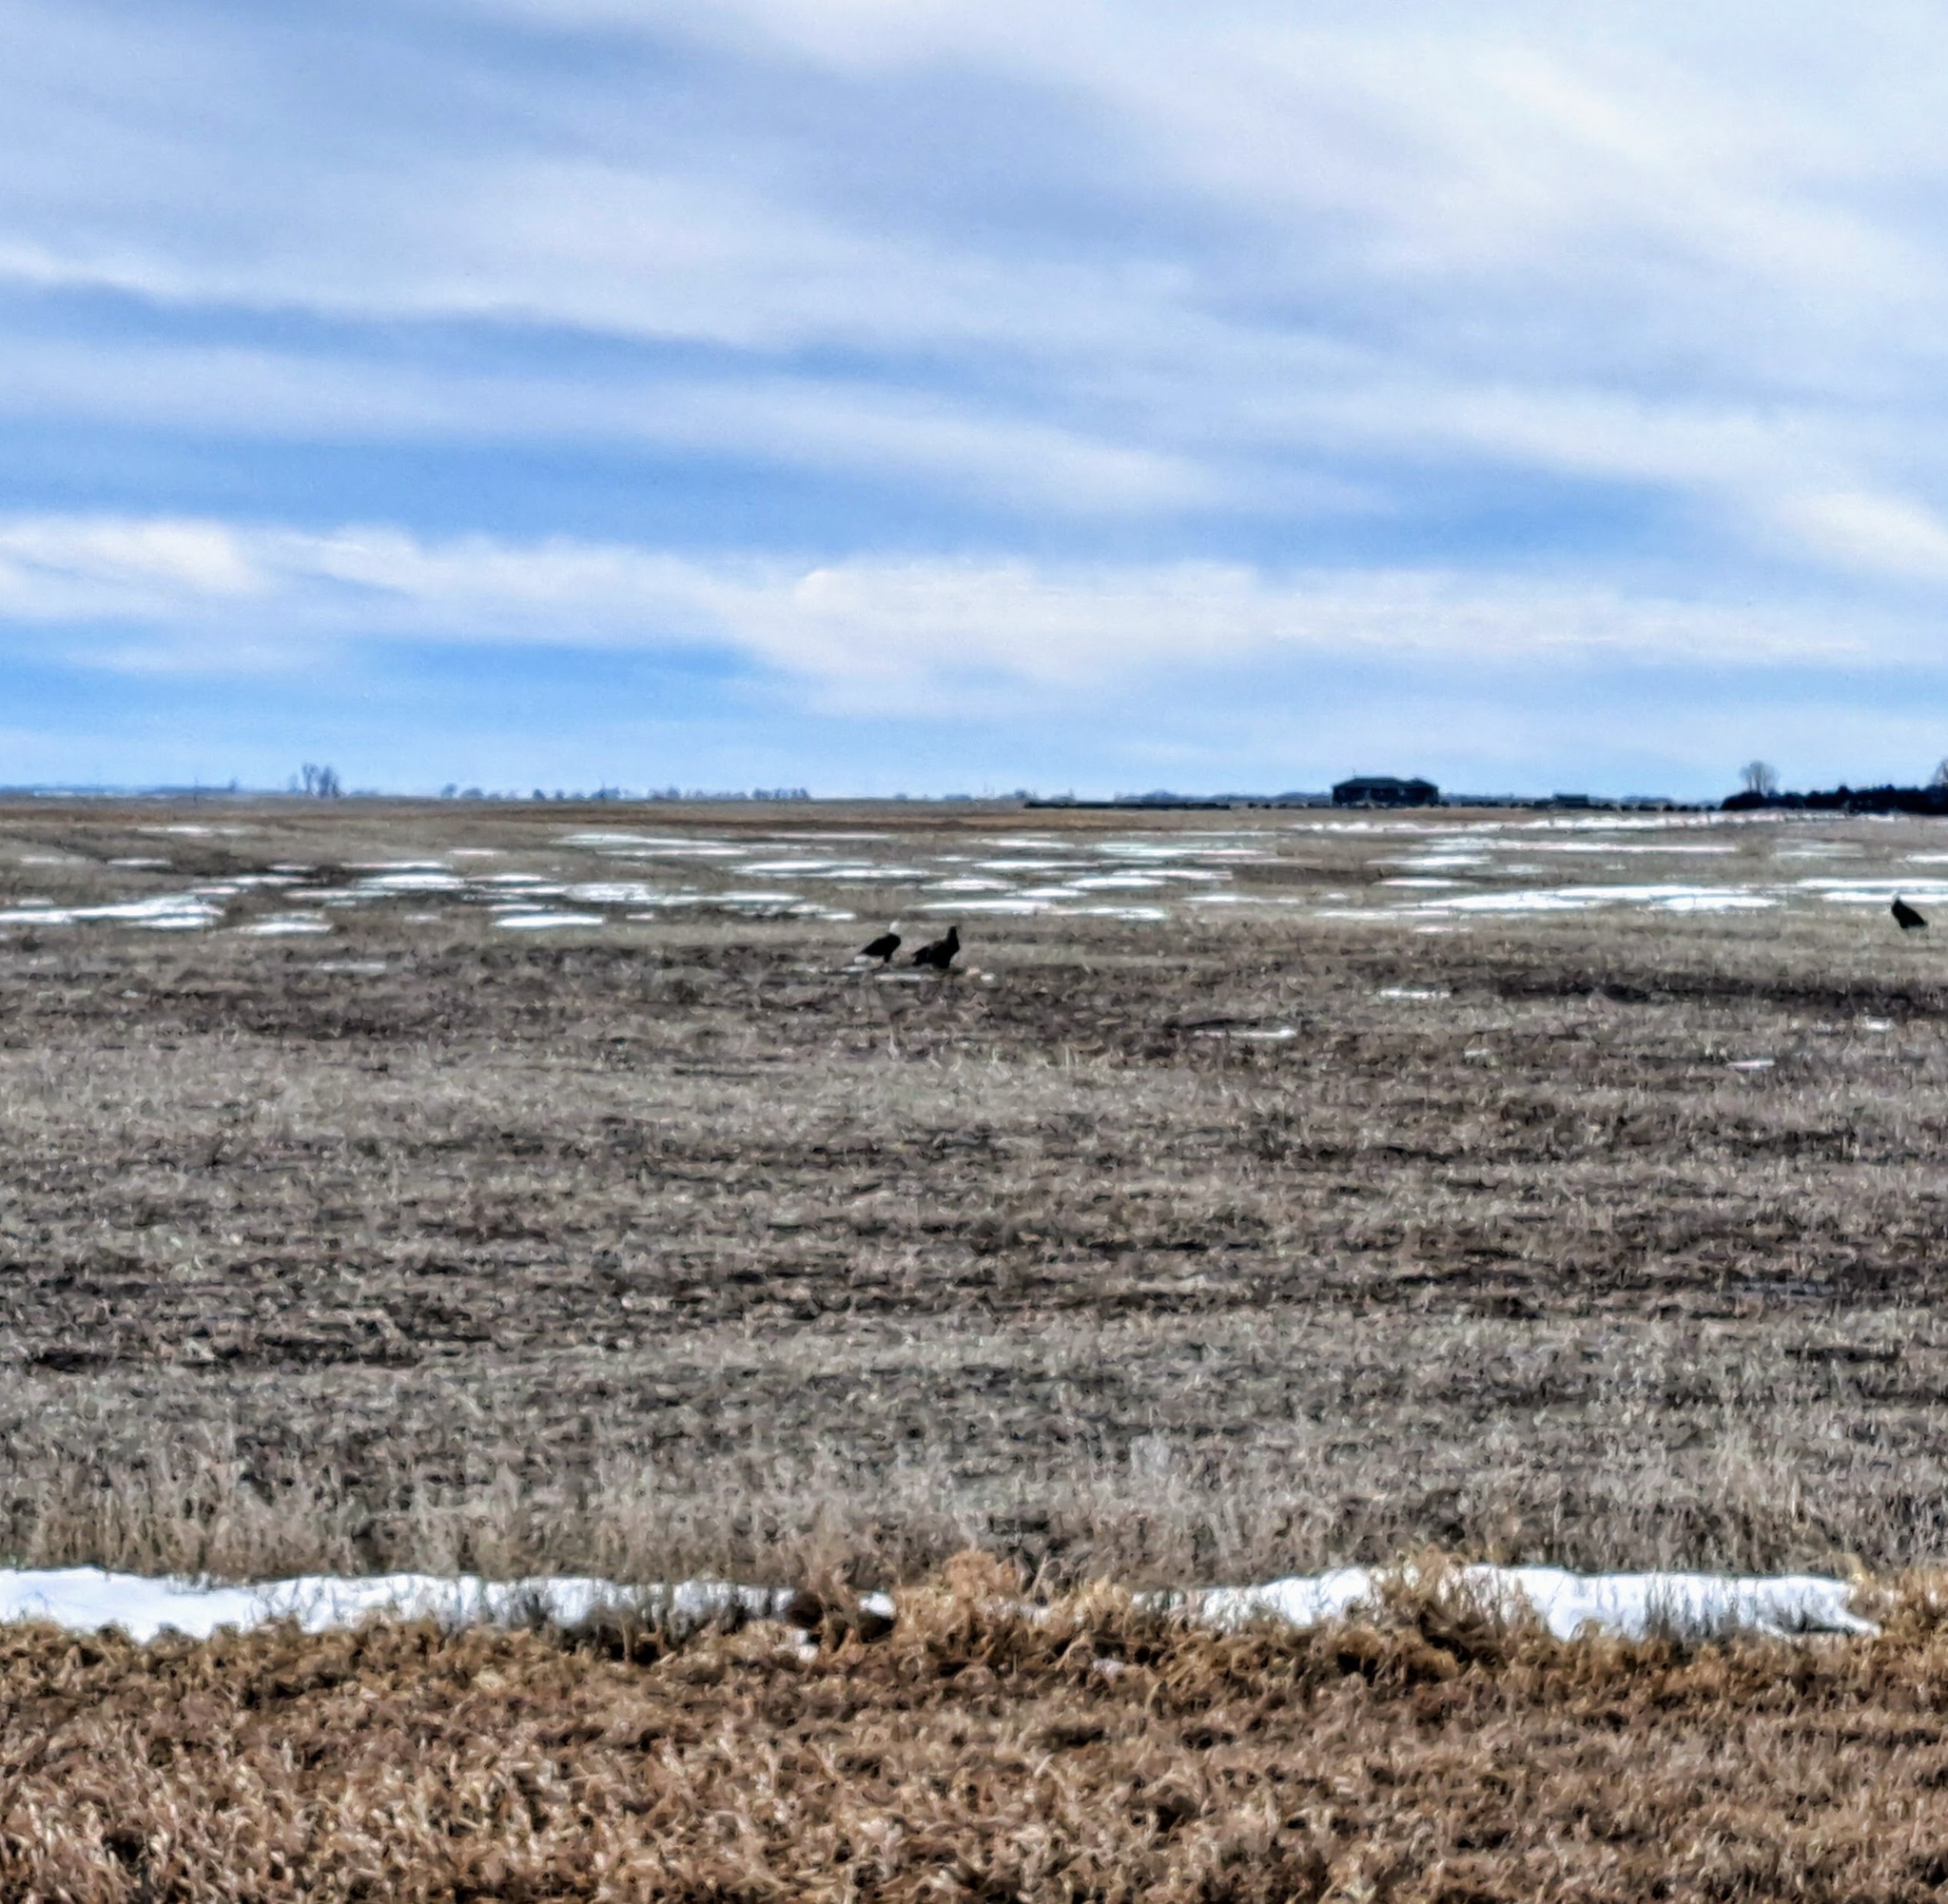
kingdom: Animalia
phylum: Chordata
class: Aves
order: Accipitriformes
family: Accipitridae
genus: Haliaeetus
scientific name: Haliaeetus leucocephalus
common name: Bald eagle
